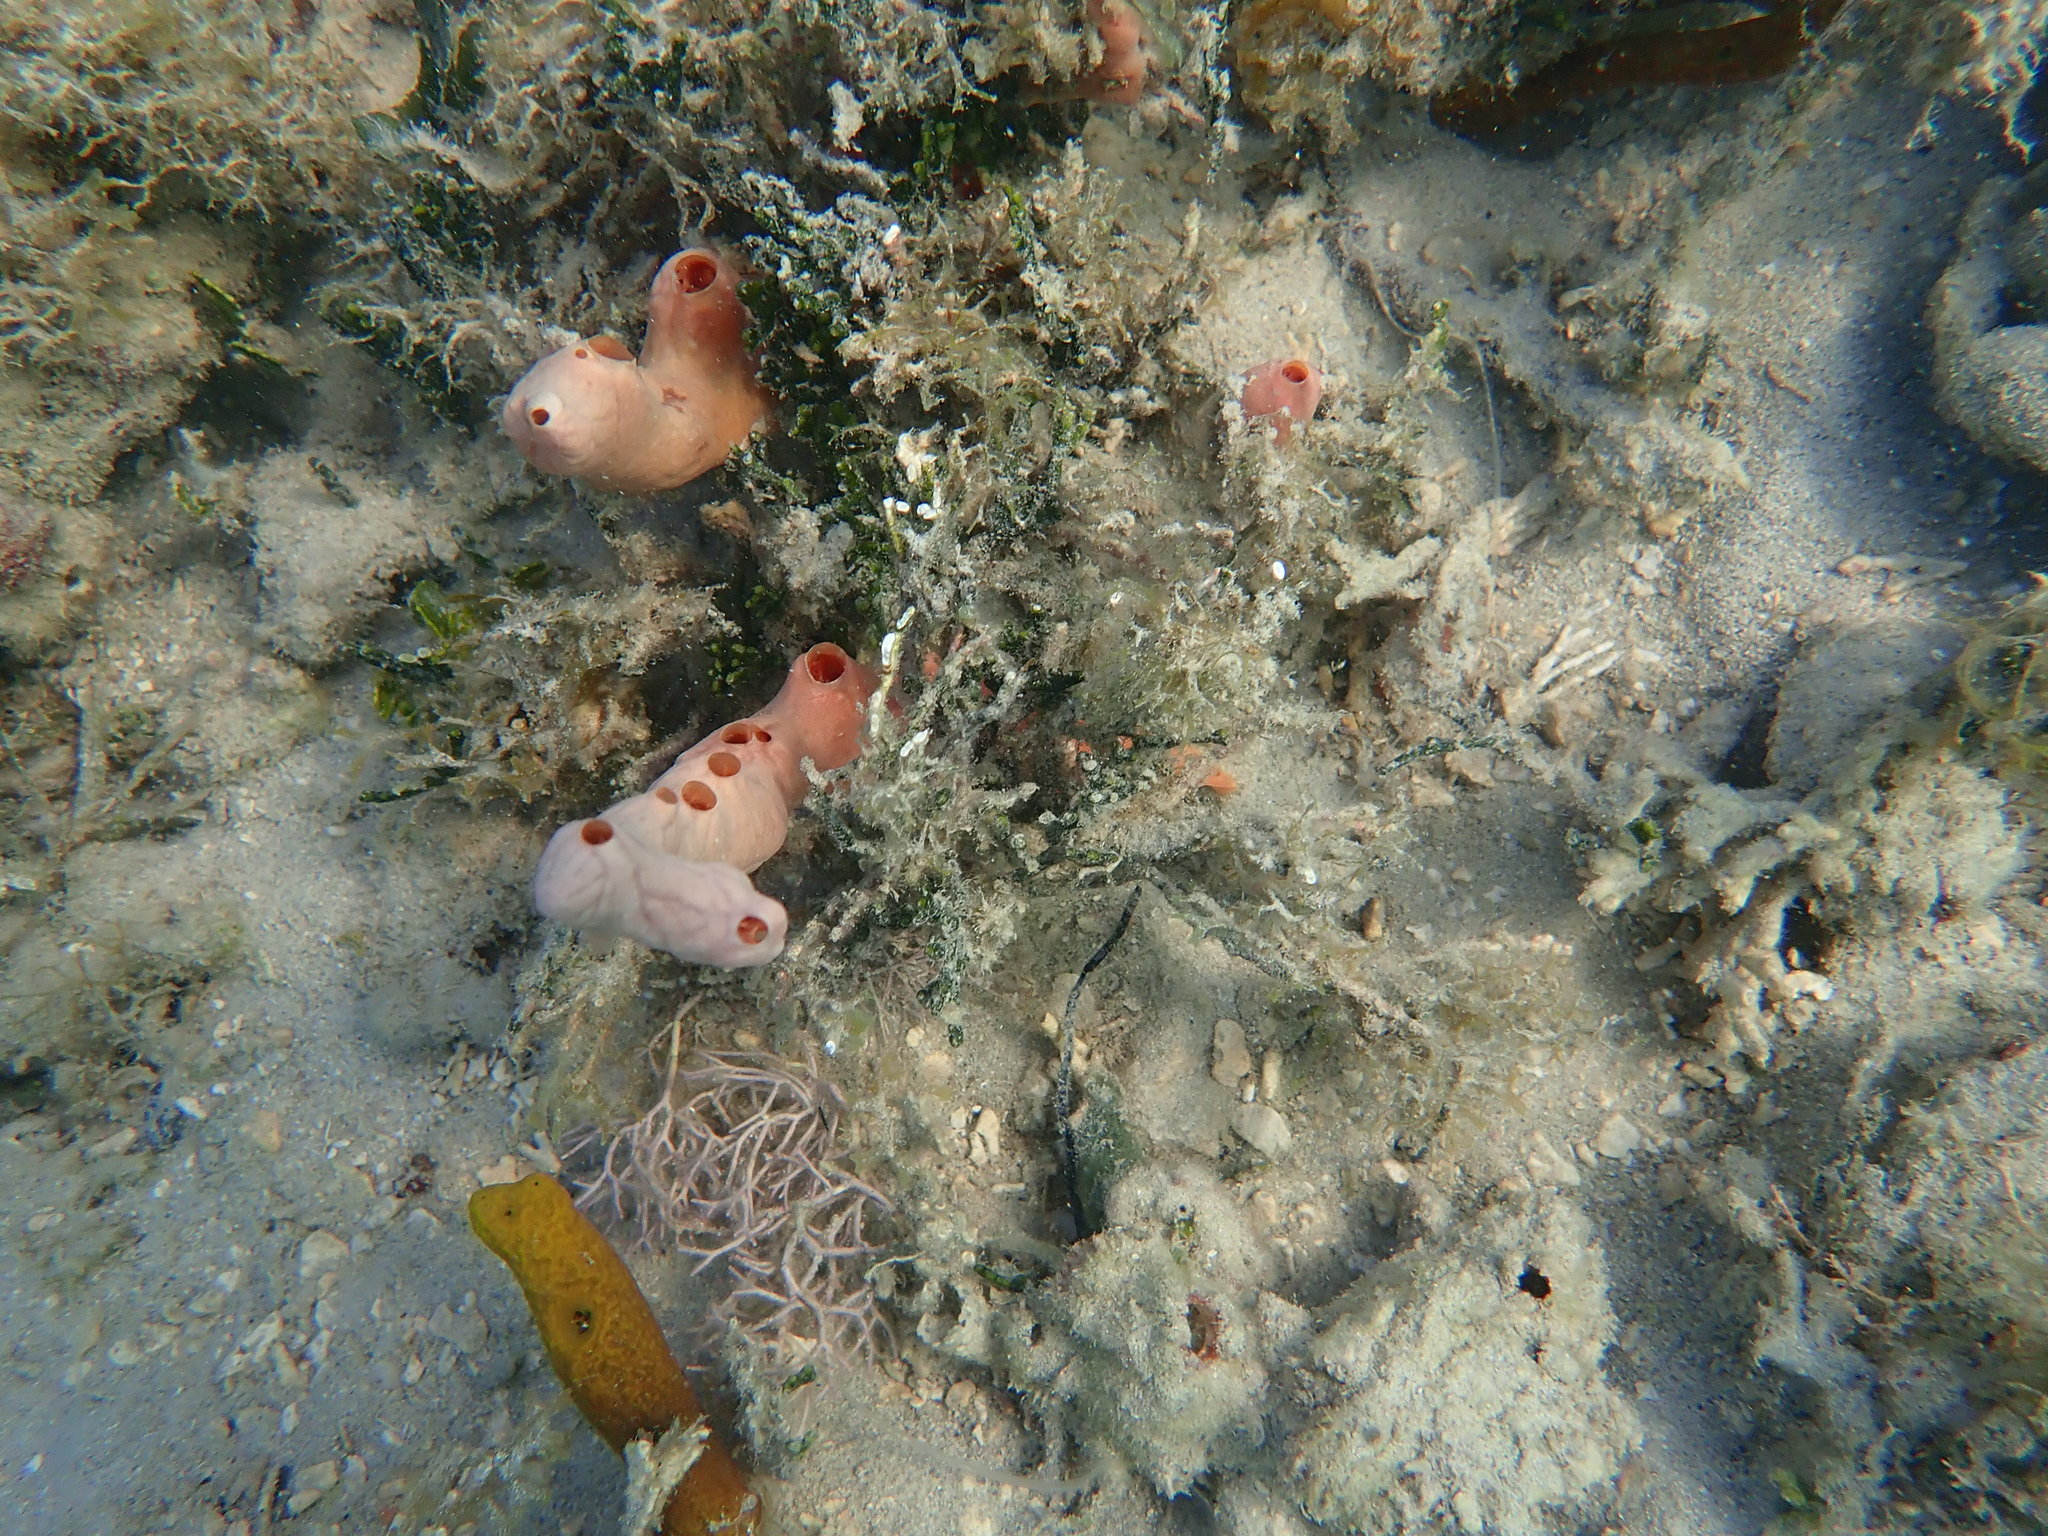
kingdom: Animalia
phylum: Porifera
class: Demospongiae
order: Poecilosclerida
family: Desmacididae
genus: Desmapsamma
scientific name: Desmapsamma anchorata
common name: Lumpy overgrowing sponge
